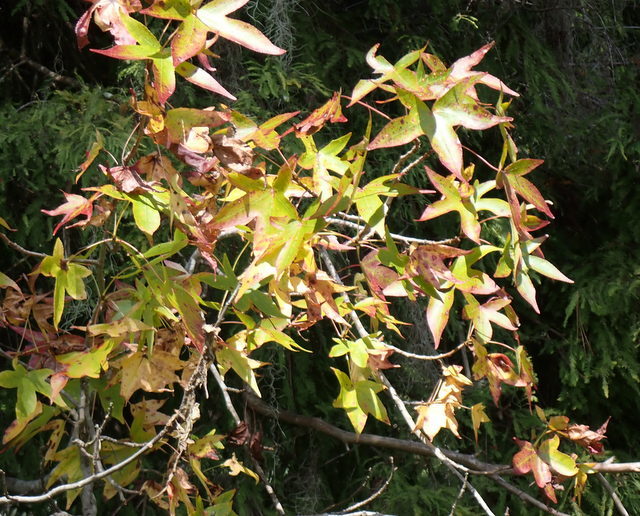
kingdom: Plantae
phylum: Tracheophyta
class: Magnoliopsida
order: Saxifragales
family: Altingiaceae
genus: Liquidambar
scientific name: Liquidambar styraciflua
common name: Sweet gum
